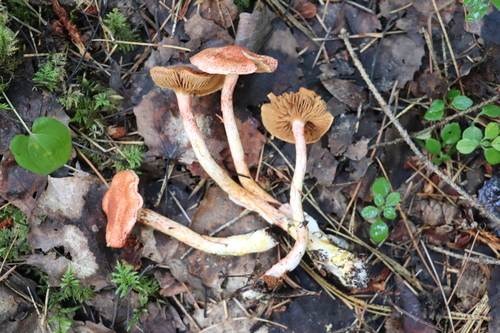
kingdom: Fungi
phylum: Basidiomycota
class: Agaricomycetes
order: Agaricales
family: Cortinariaceae
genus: Cortinarius
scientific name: Cortinarius bolaris
